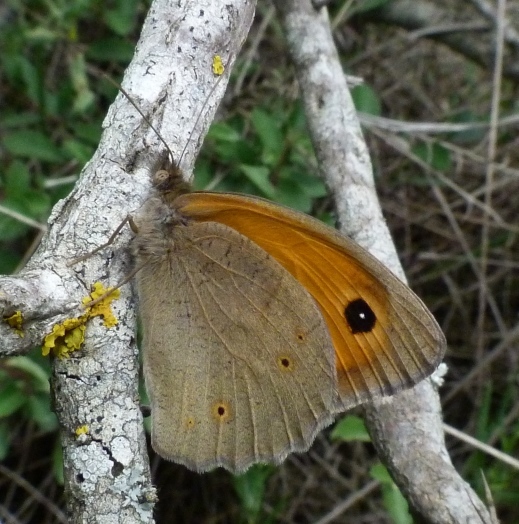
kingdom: Animalia
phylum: Arthropoda
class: Insecta
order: Lepidoptera
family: Nymphalidae
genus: Maniola
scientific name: Maniola jurtina
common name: Meadow brown
